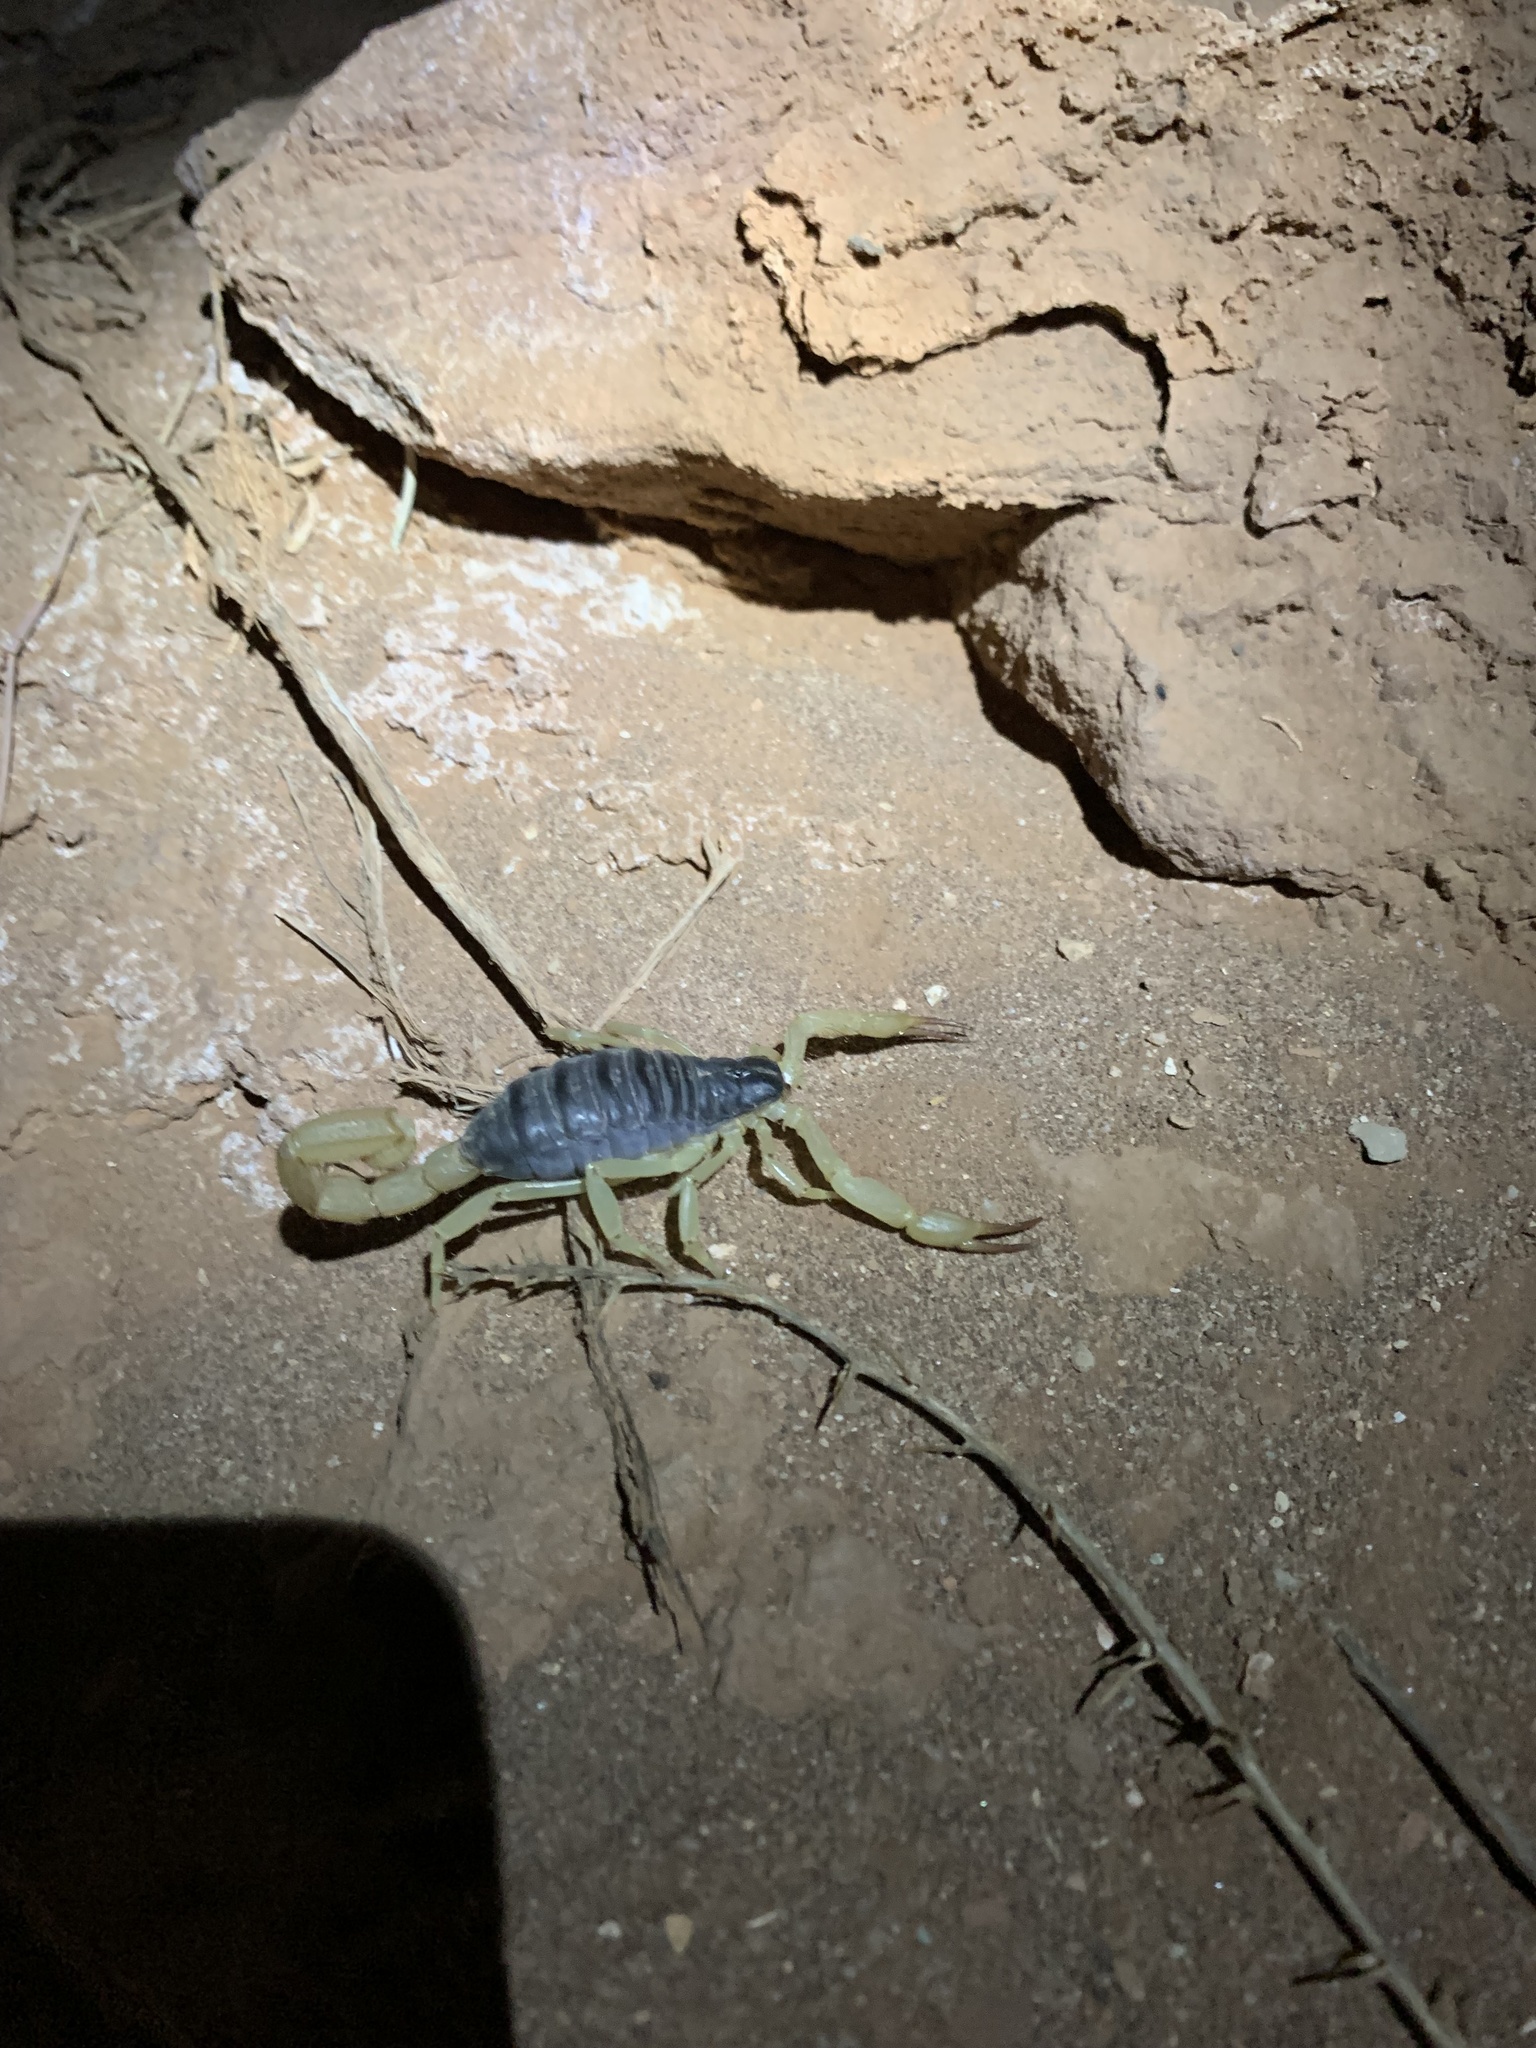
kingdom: Animalia
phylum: Arthropoda
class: Arachnida
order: Scorpiones
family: Hadruridae
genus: Hadrurus
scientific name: Hadrurus spadix
